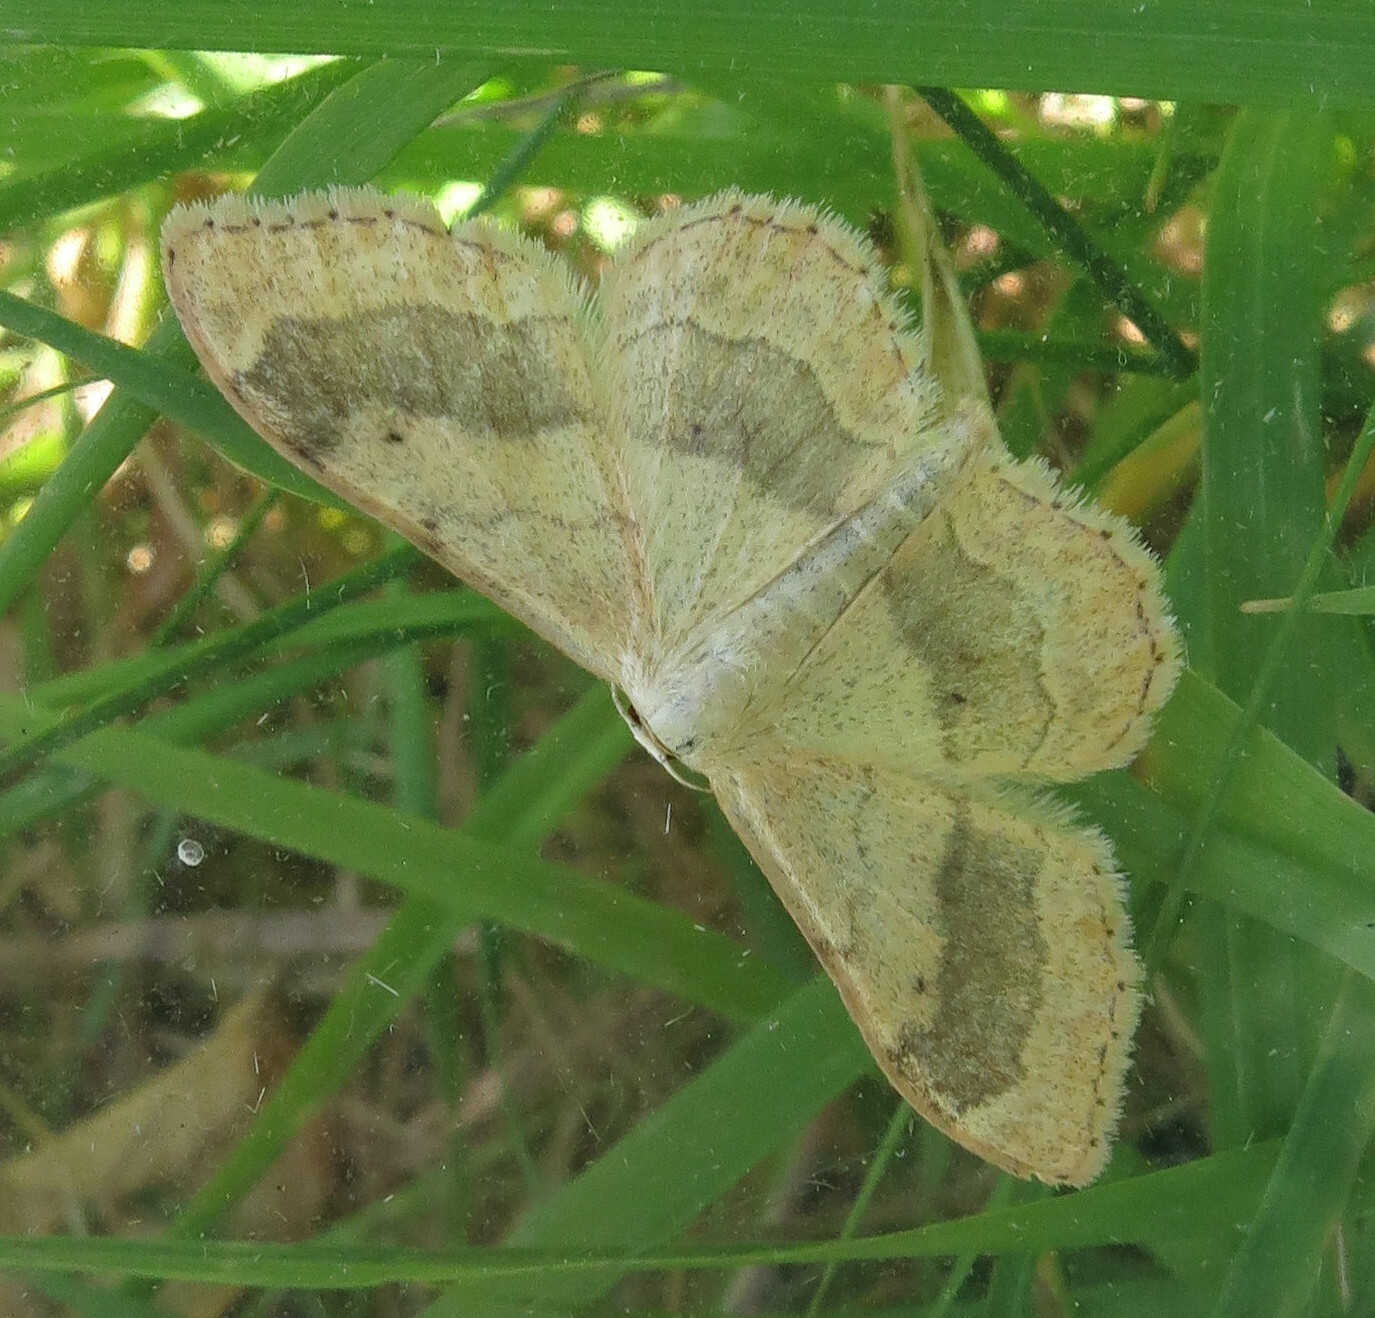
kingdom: Animalia
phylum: Arthropoda
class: Insecta
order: Lepidoptera
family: Geometridae
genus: Idaea
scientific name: Idaea aversata
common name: Riband wave
